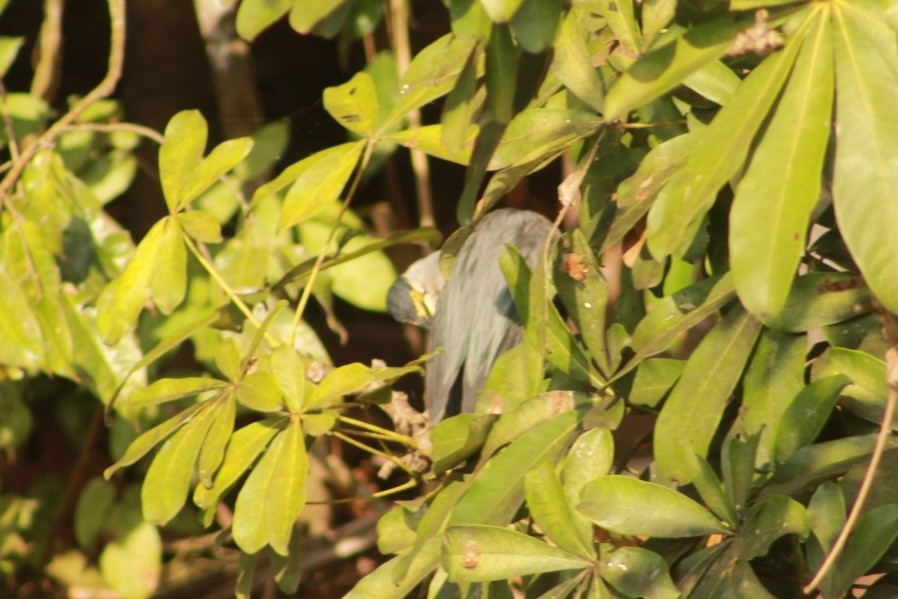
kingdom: Animalia
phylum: Chordata
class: Aves
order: Pelecaniformes
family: Ardeidae
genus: Butorides
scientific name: Butorides striata
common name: Striated heron
